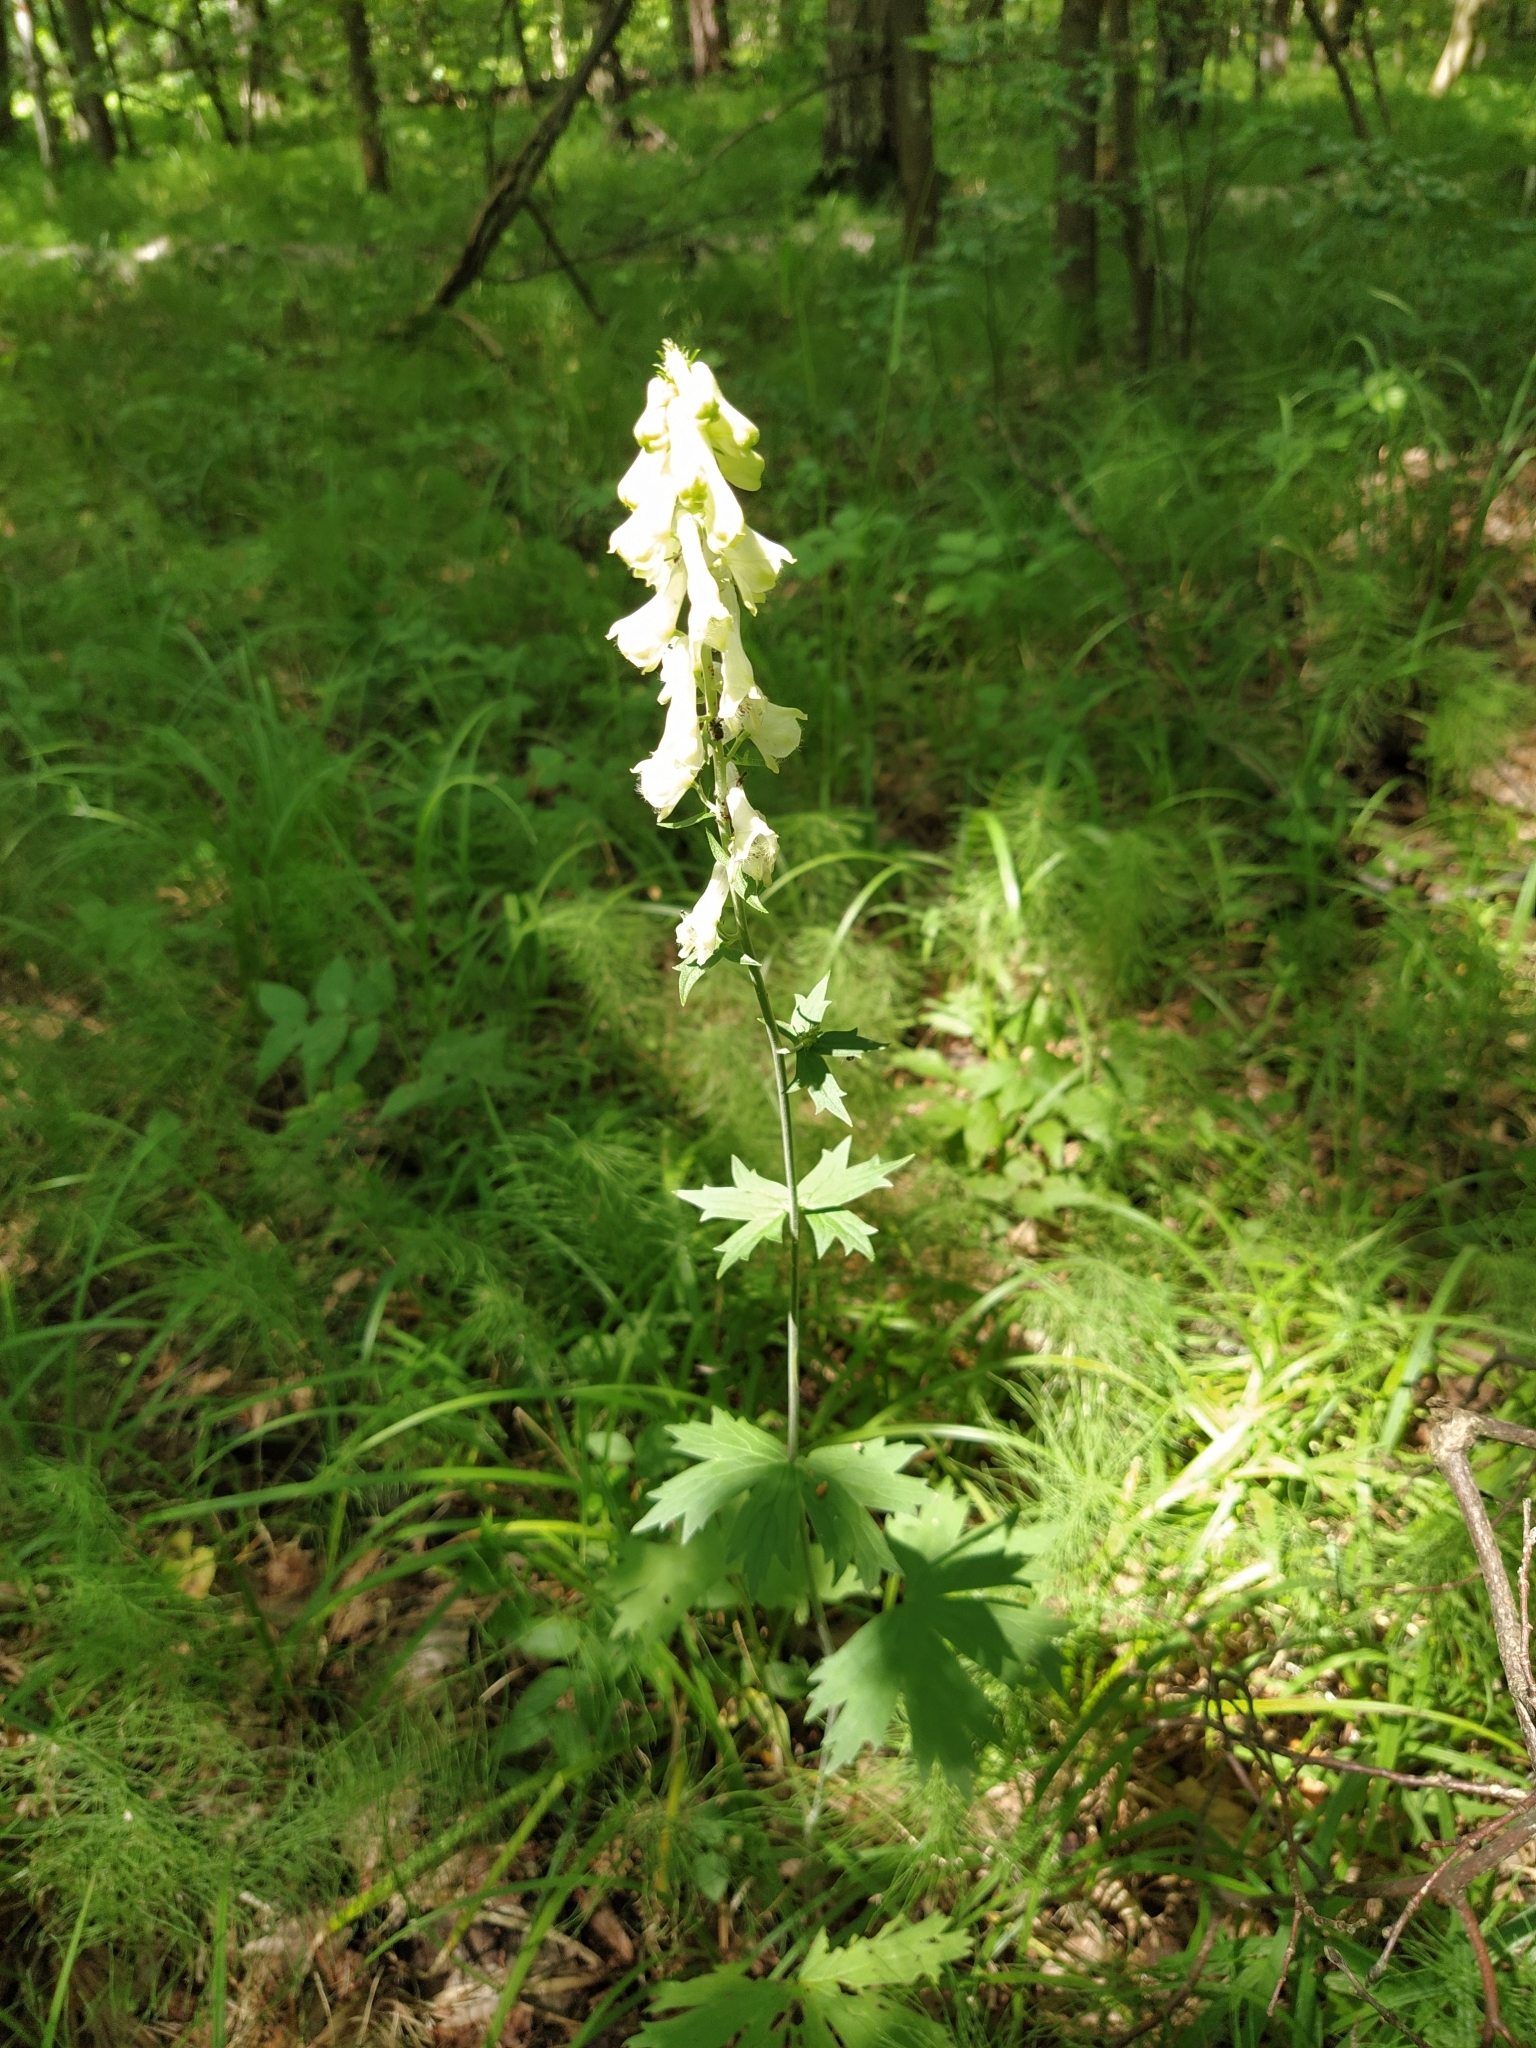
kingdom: Plantae
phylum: Tracheophyta
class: Magnoliopsida
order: Ranunculales
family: Ranunculaceae
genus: Aconitum
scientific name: Aconitum lasiostomum
